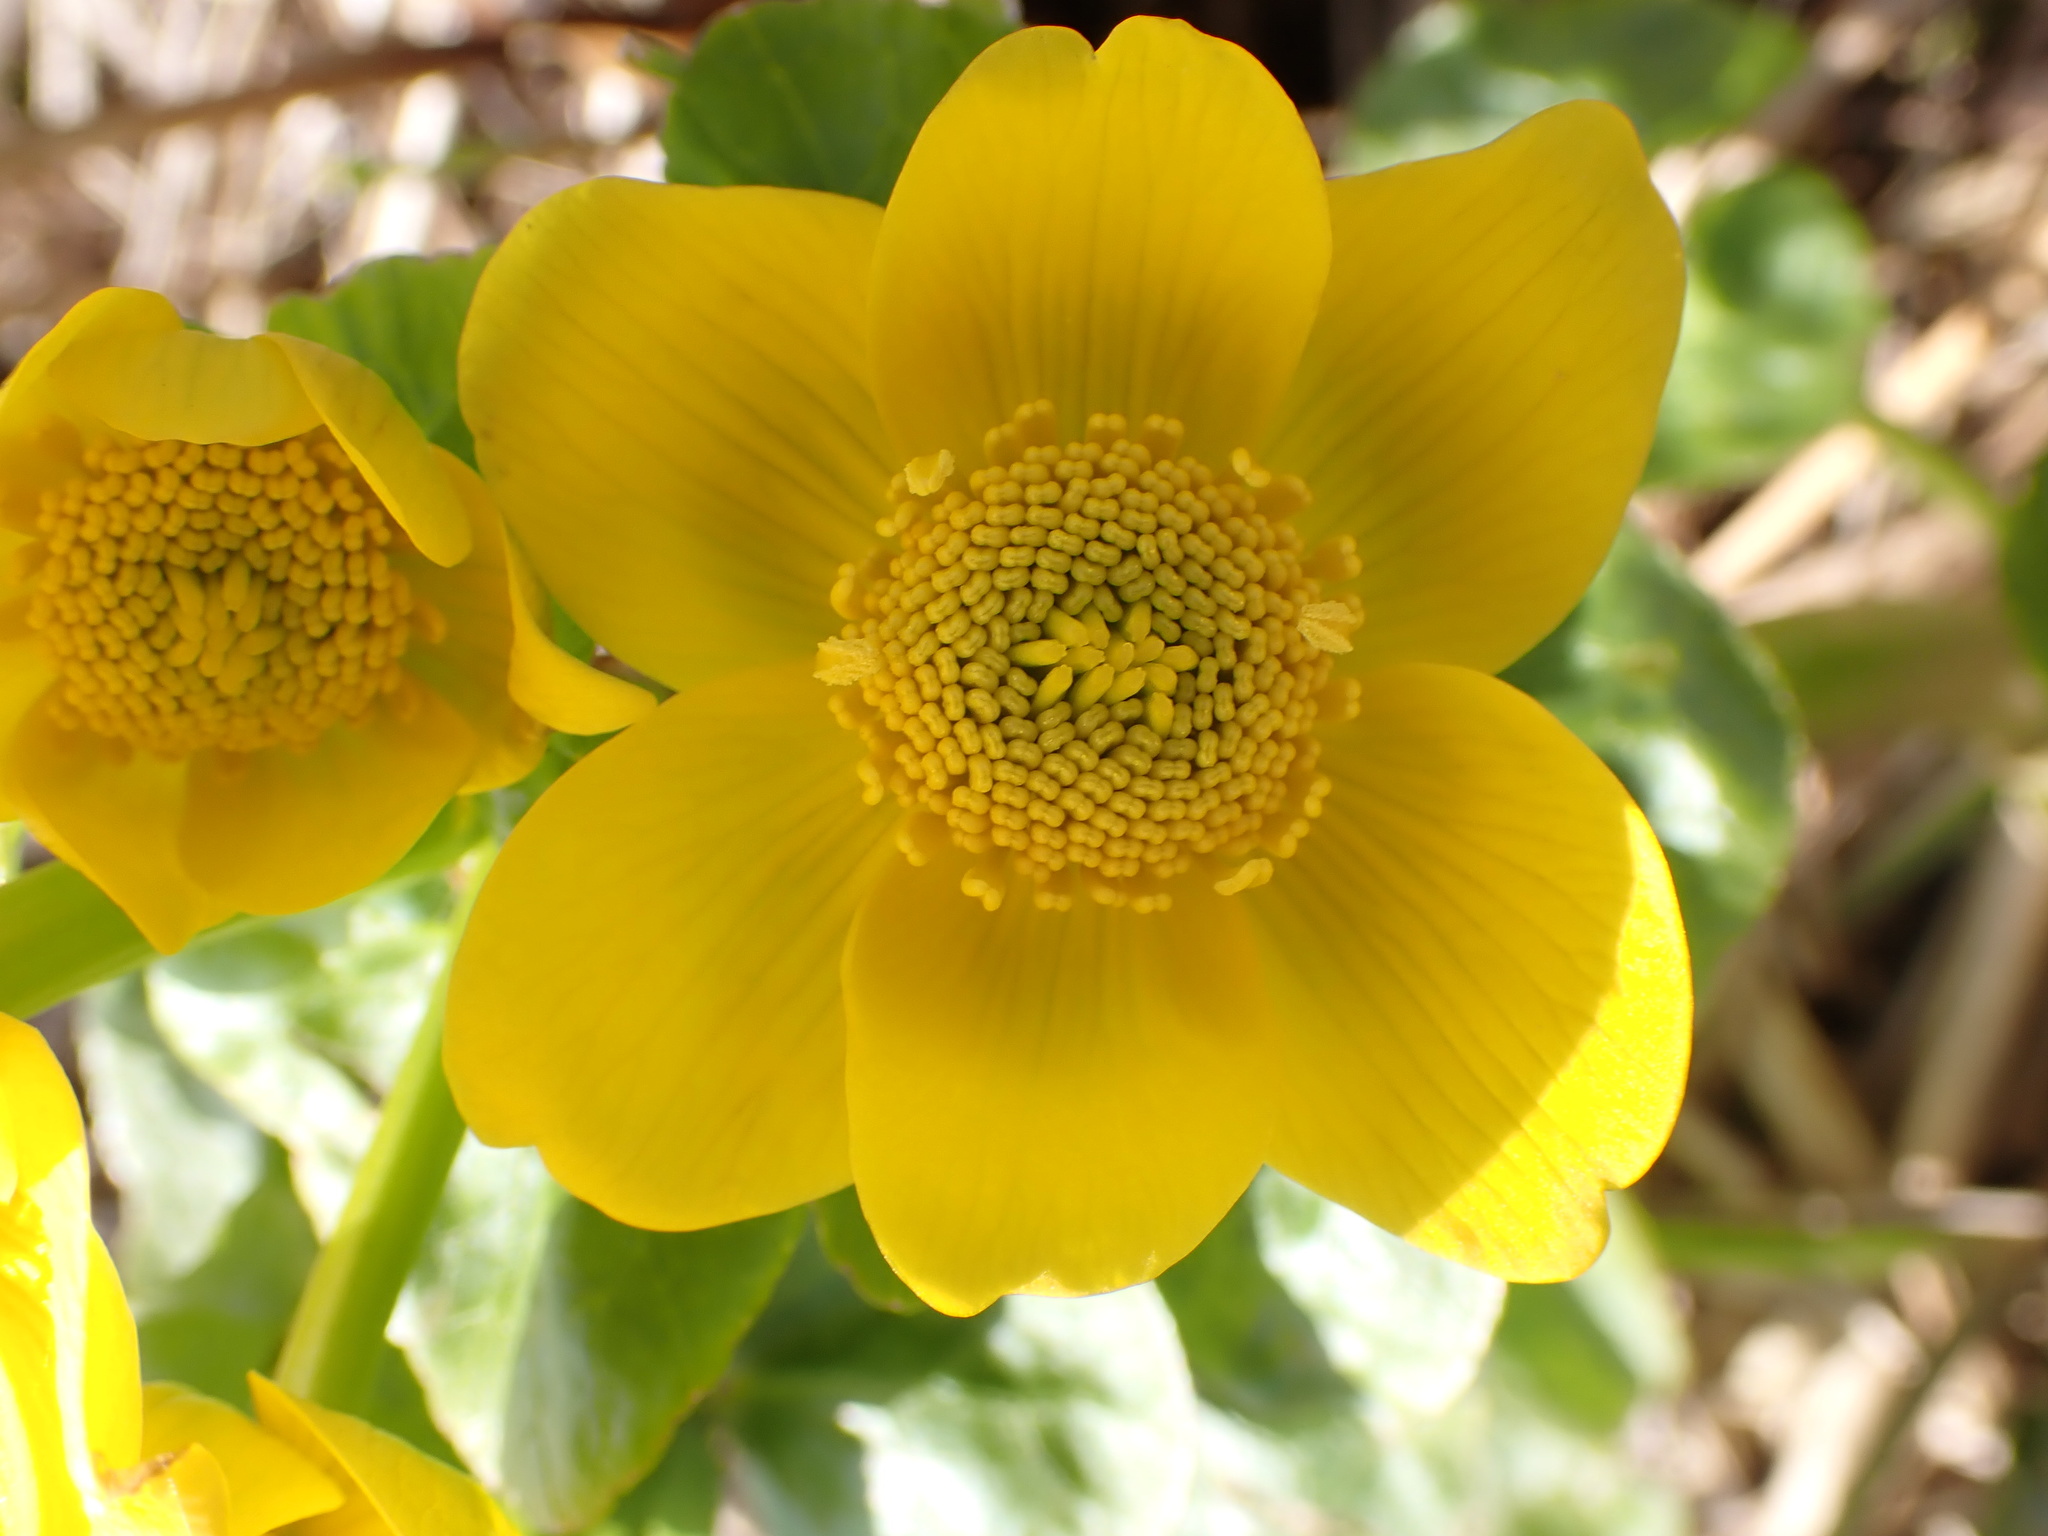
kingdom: Plantae
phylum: Tracheophyta
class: Magnoliopsida
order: Ranunculales
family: Ranunculaceae
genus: Caltha
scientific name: Caltha palustris
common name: Marsh marigold
